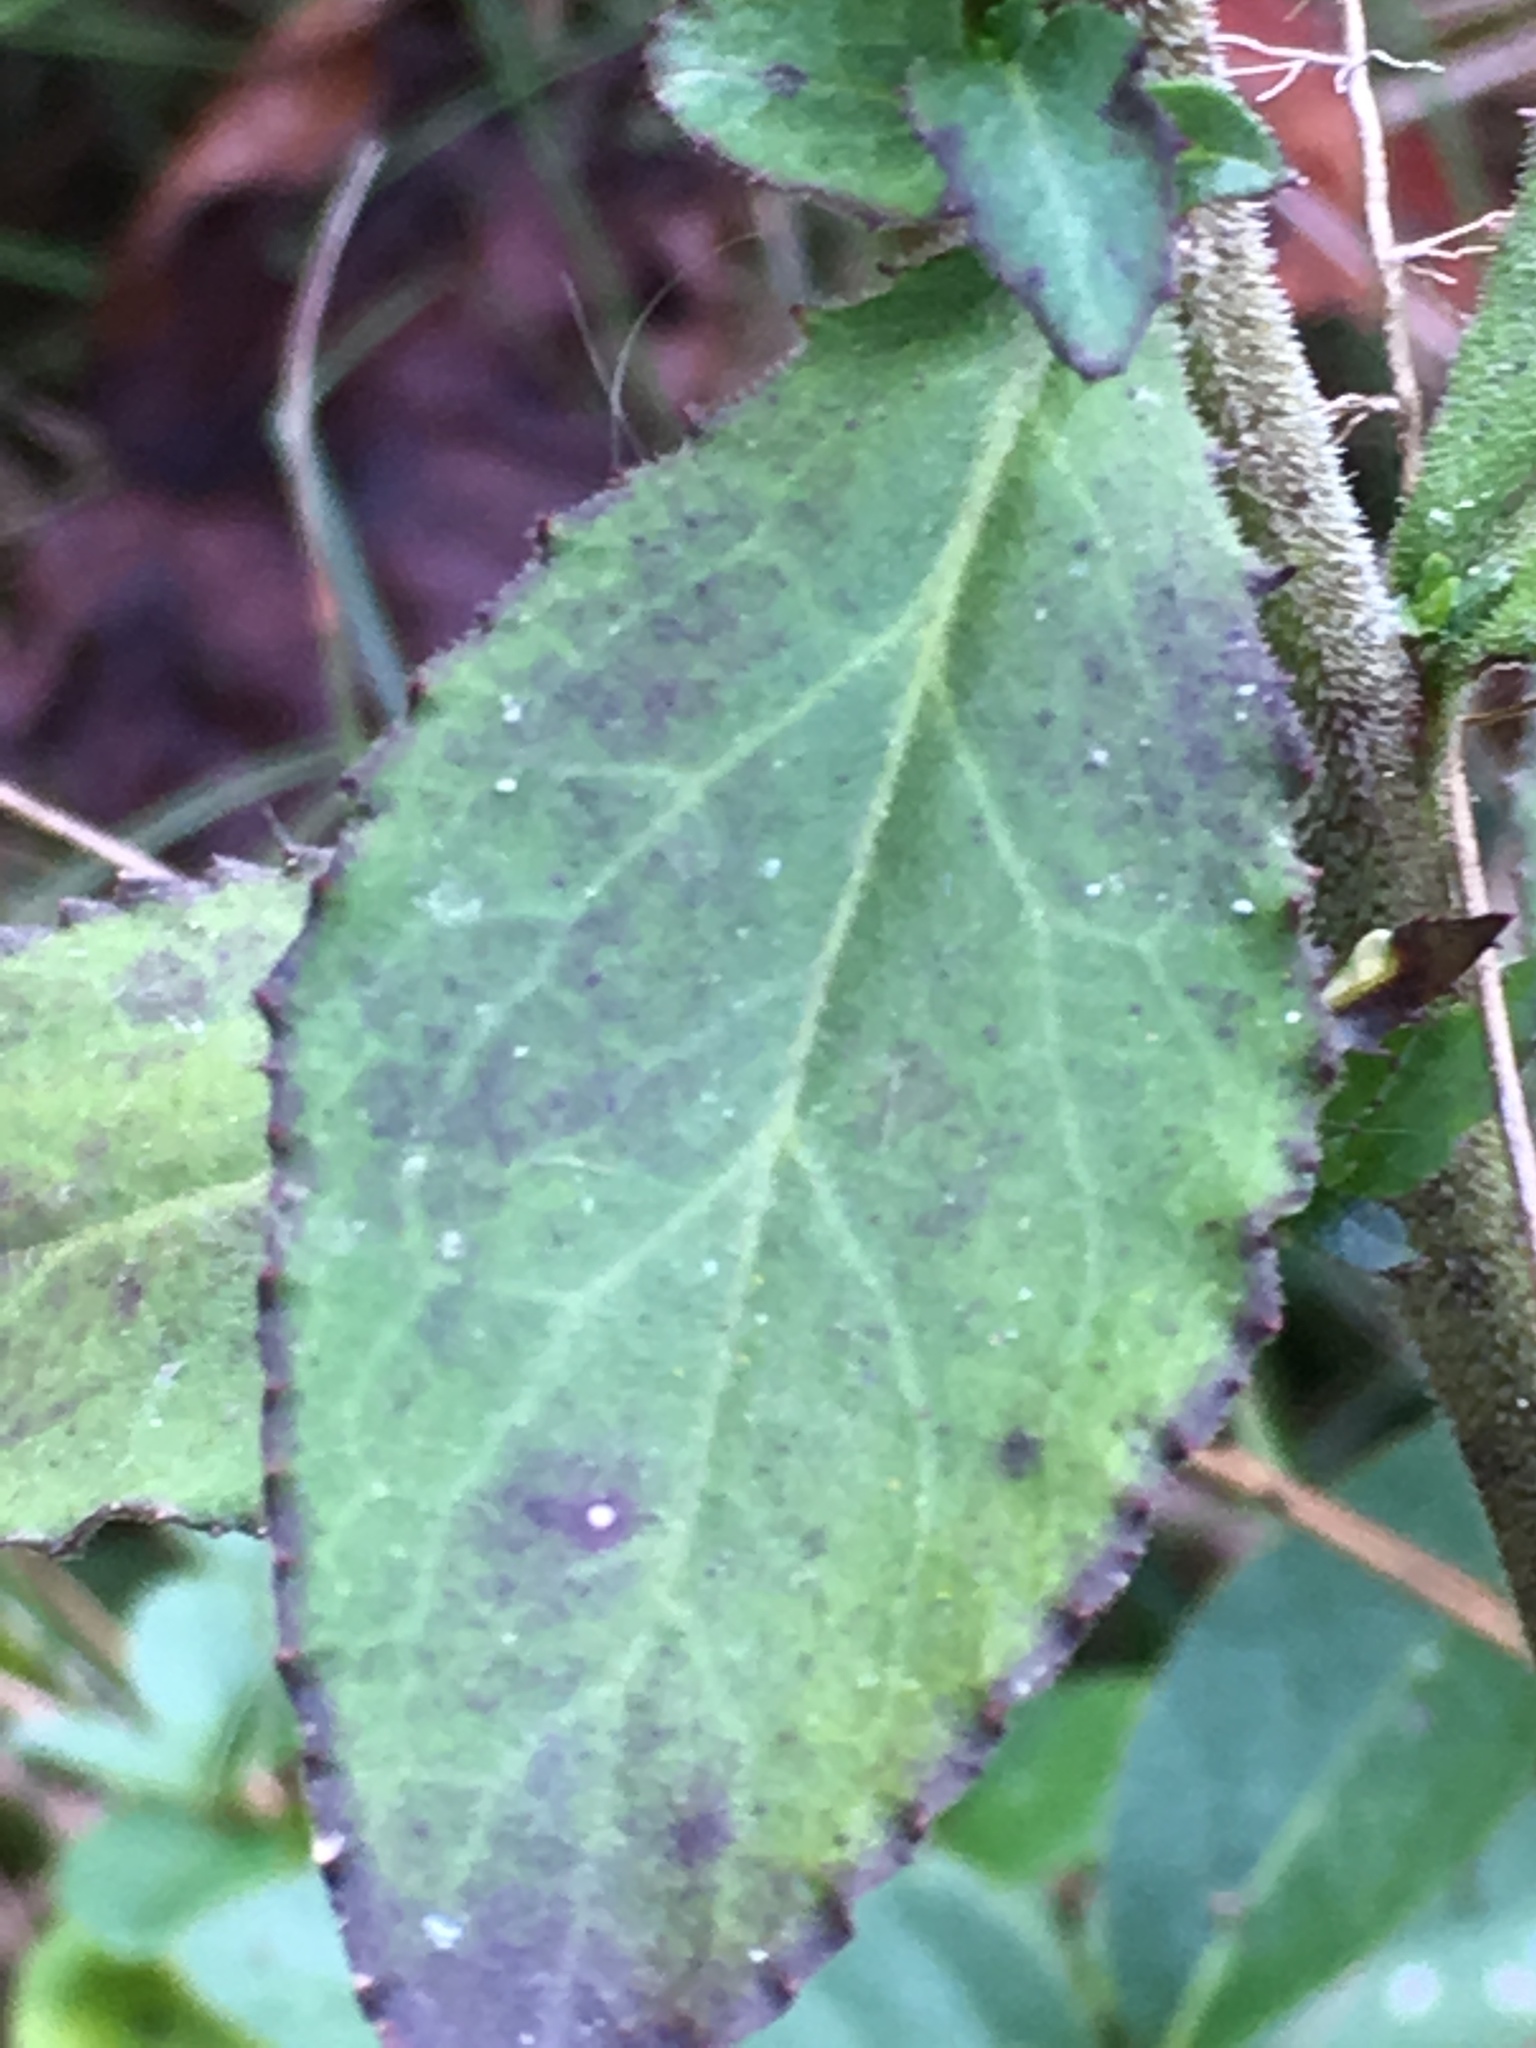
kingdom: Plantae
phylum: Tracheophyta
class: Magnoliopsida
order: Asterales
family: Campanulaceae
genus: Lobelia
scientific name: Lobelia puberula
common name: Purple dewdrop
